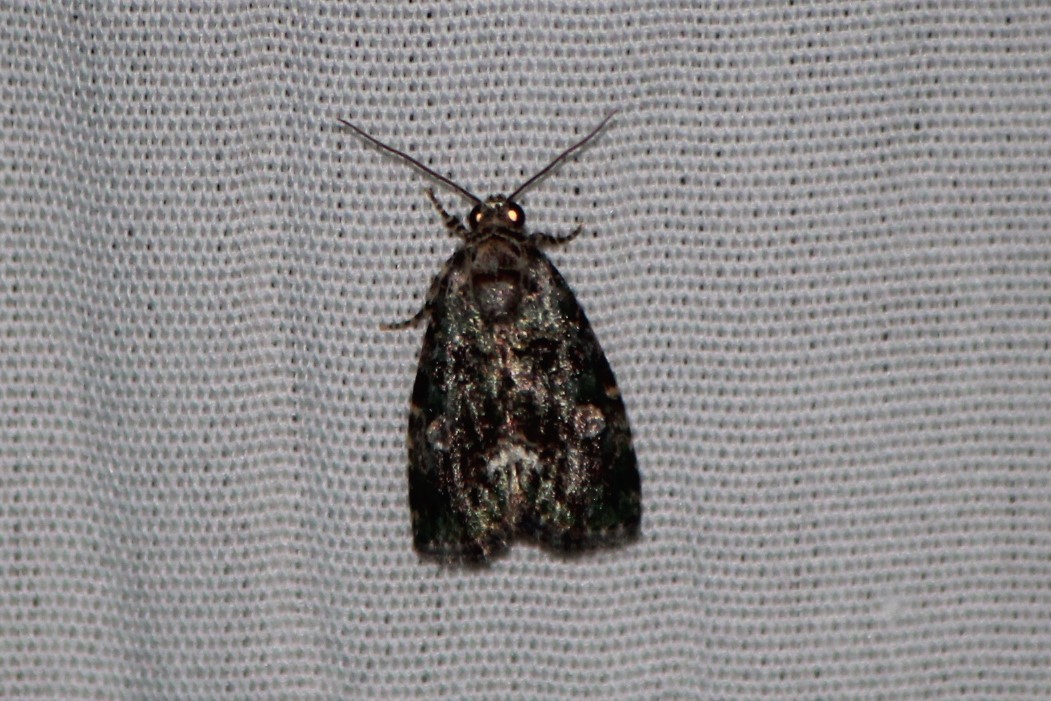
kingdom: Animalia
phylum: Arthropoda
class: Insecta
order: Lepidoptera
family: Noctuidae
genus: Lithacodia
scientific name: Lithacodia musta
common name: Small mossy glyph
